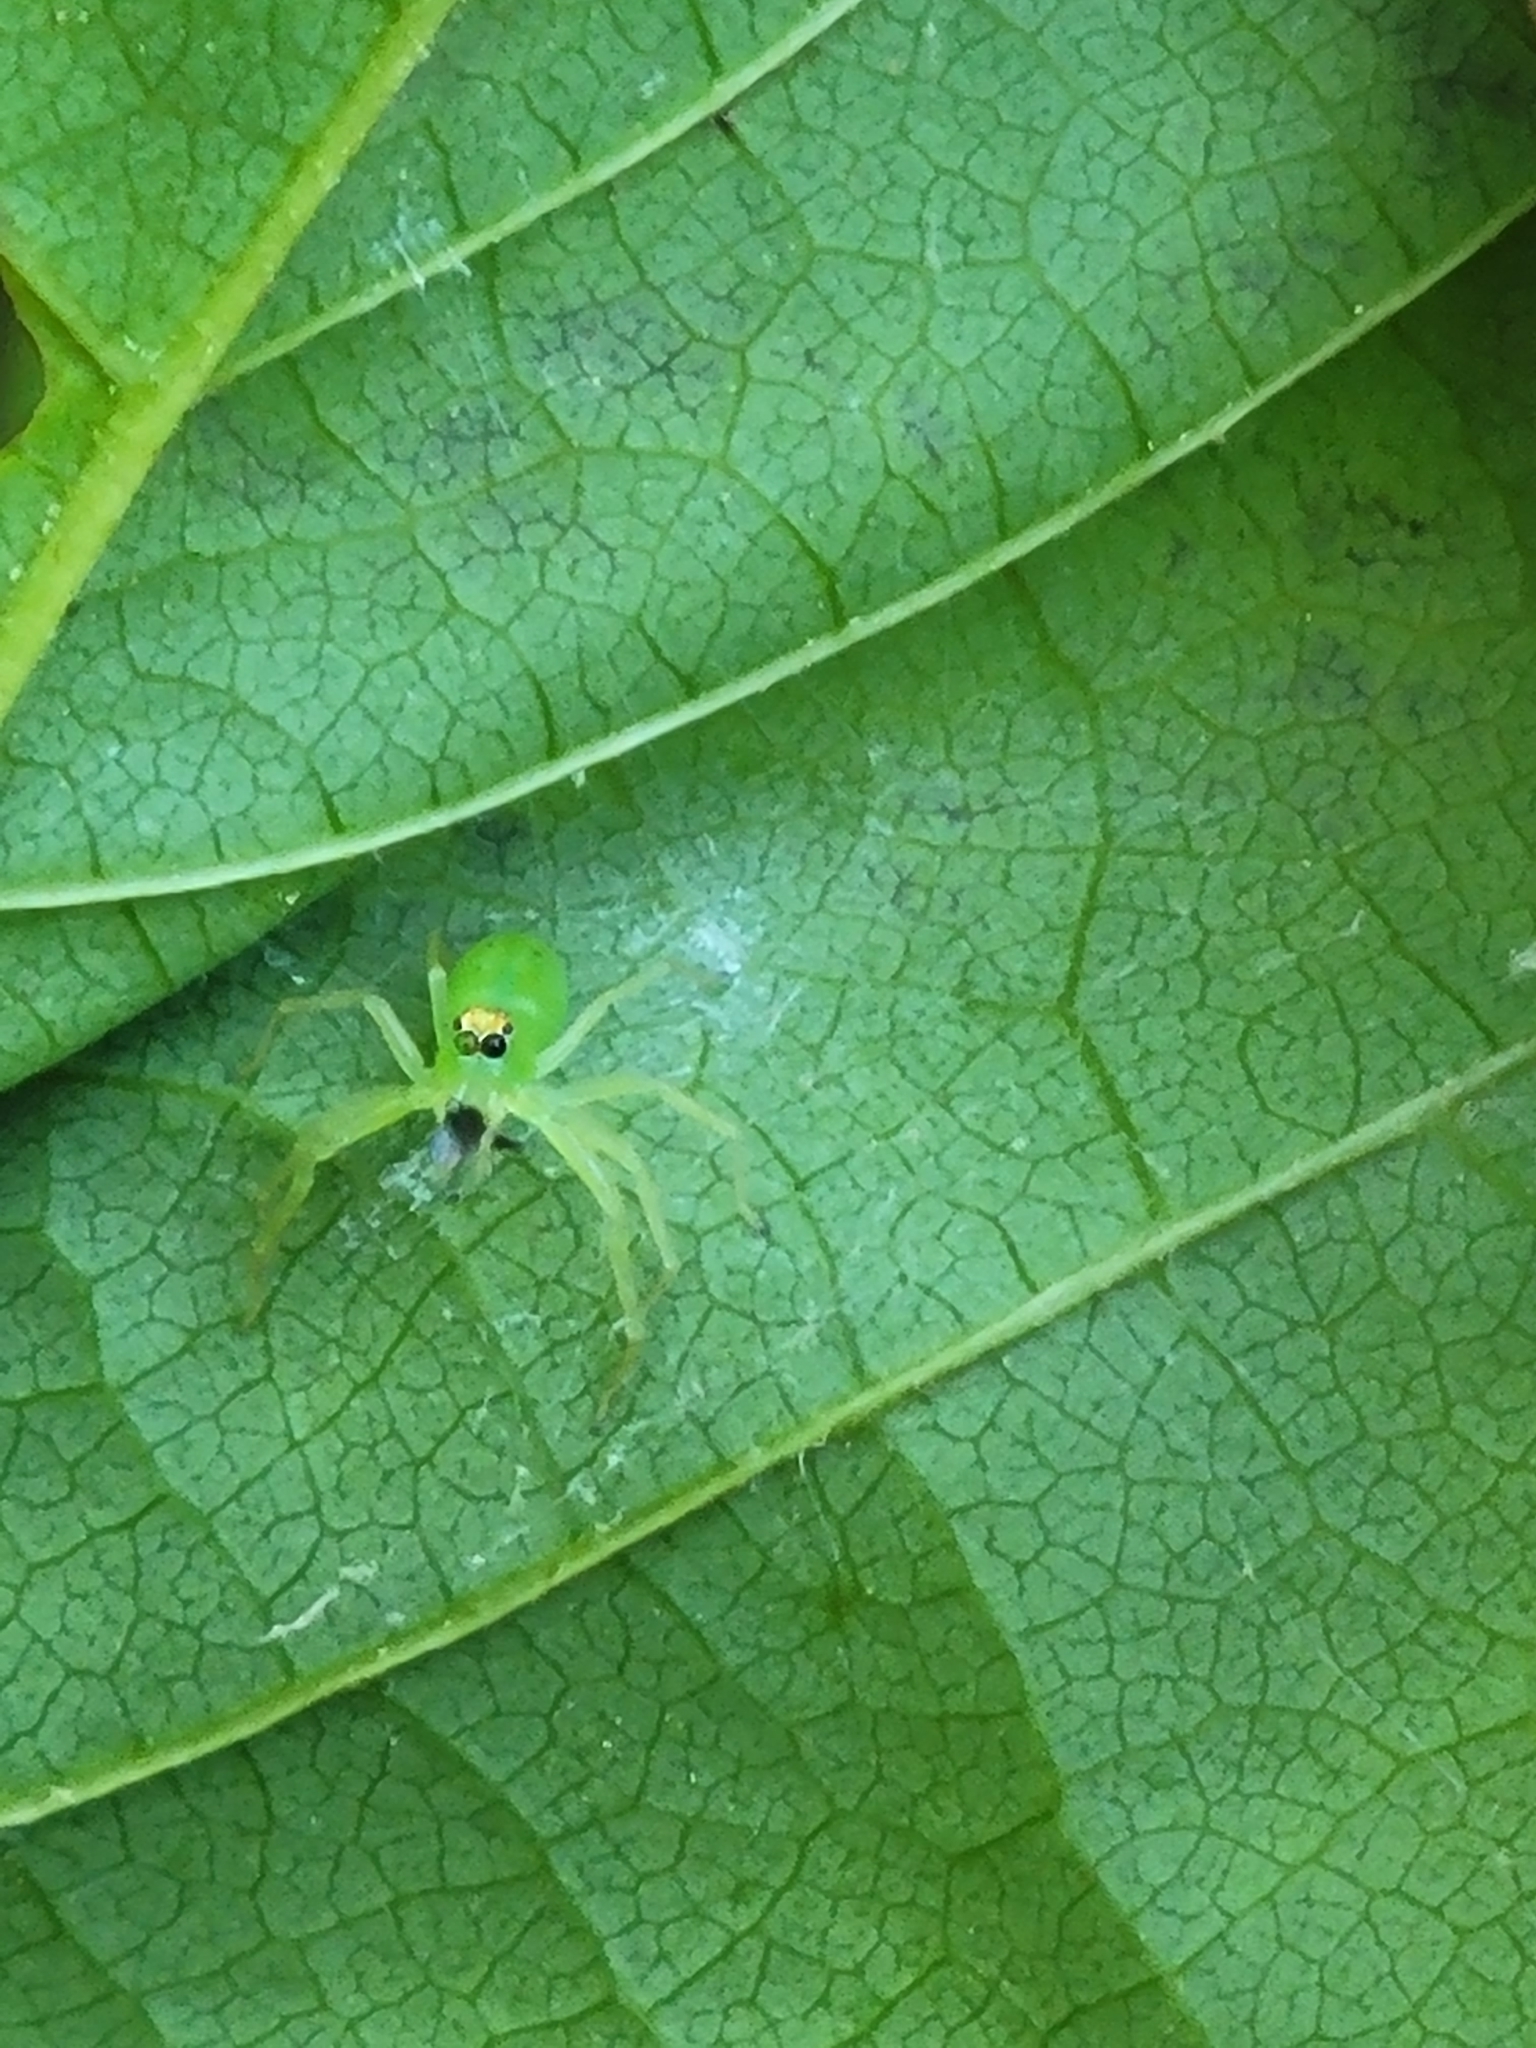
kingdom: Animalia
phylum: Arthropoda
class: Arachnida
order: Araneae
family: Salticidae
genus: Lyssomanes
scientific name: Lyssomanes viridis
